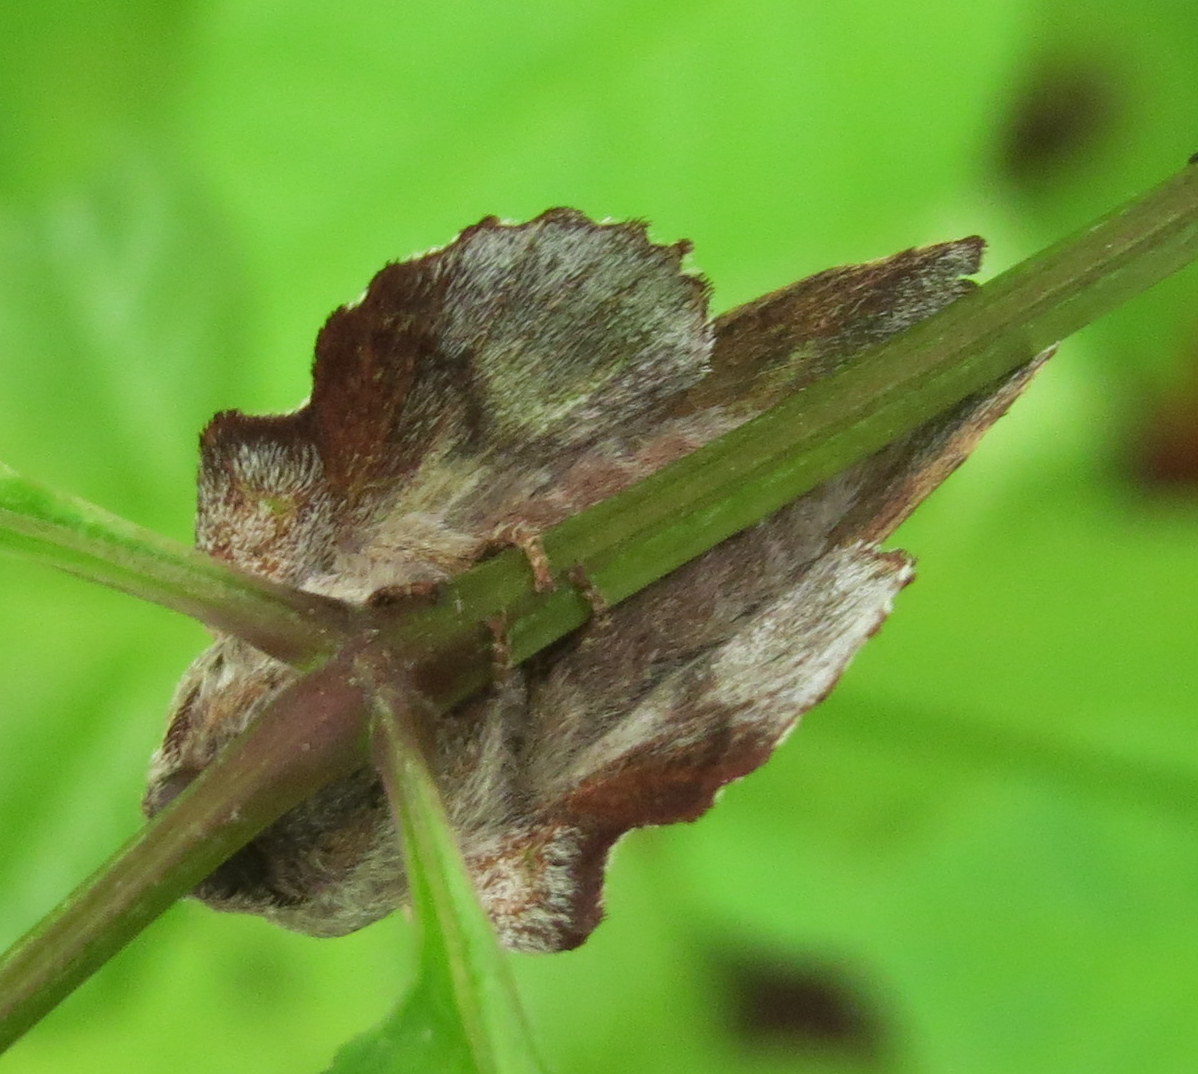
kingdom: Animalia
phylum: Arthropoda
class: Insecta
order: Lepidoptera
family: Lasiocampidae
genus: Phyllodesma
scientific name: Phyllodesma americana
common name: American lappet moth
